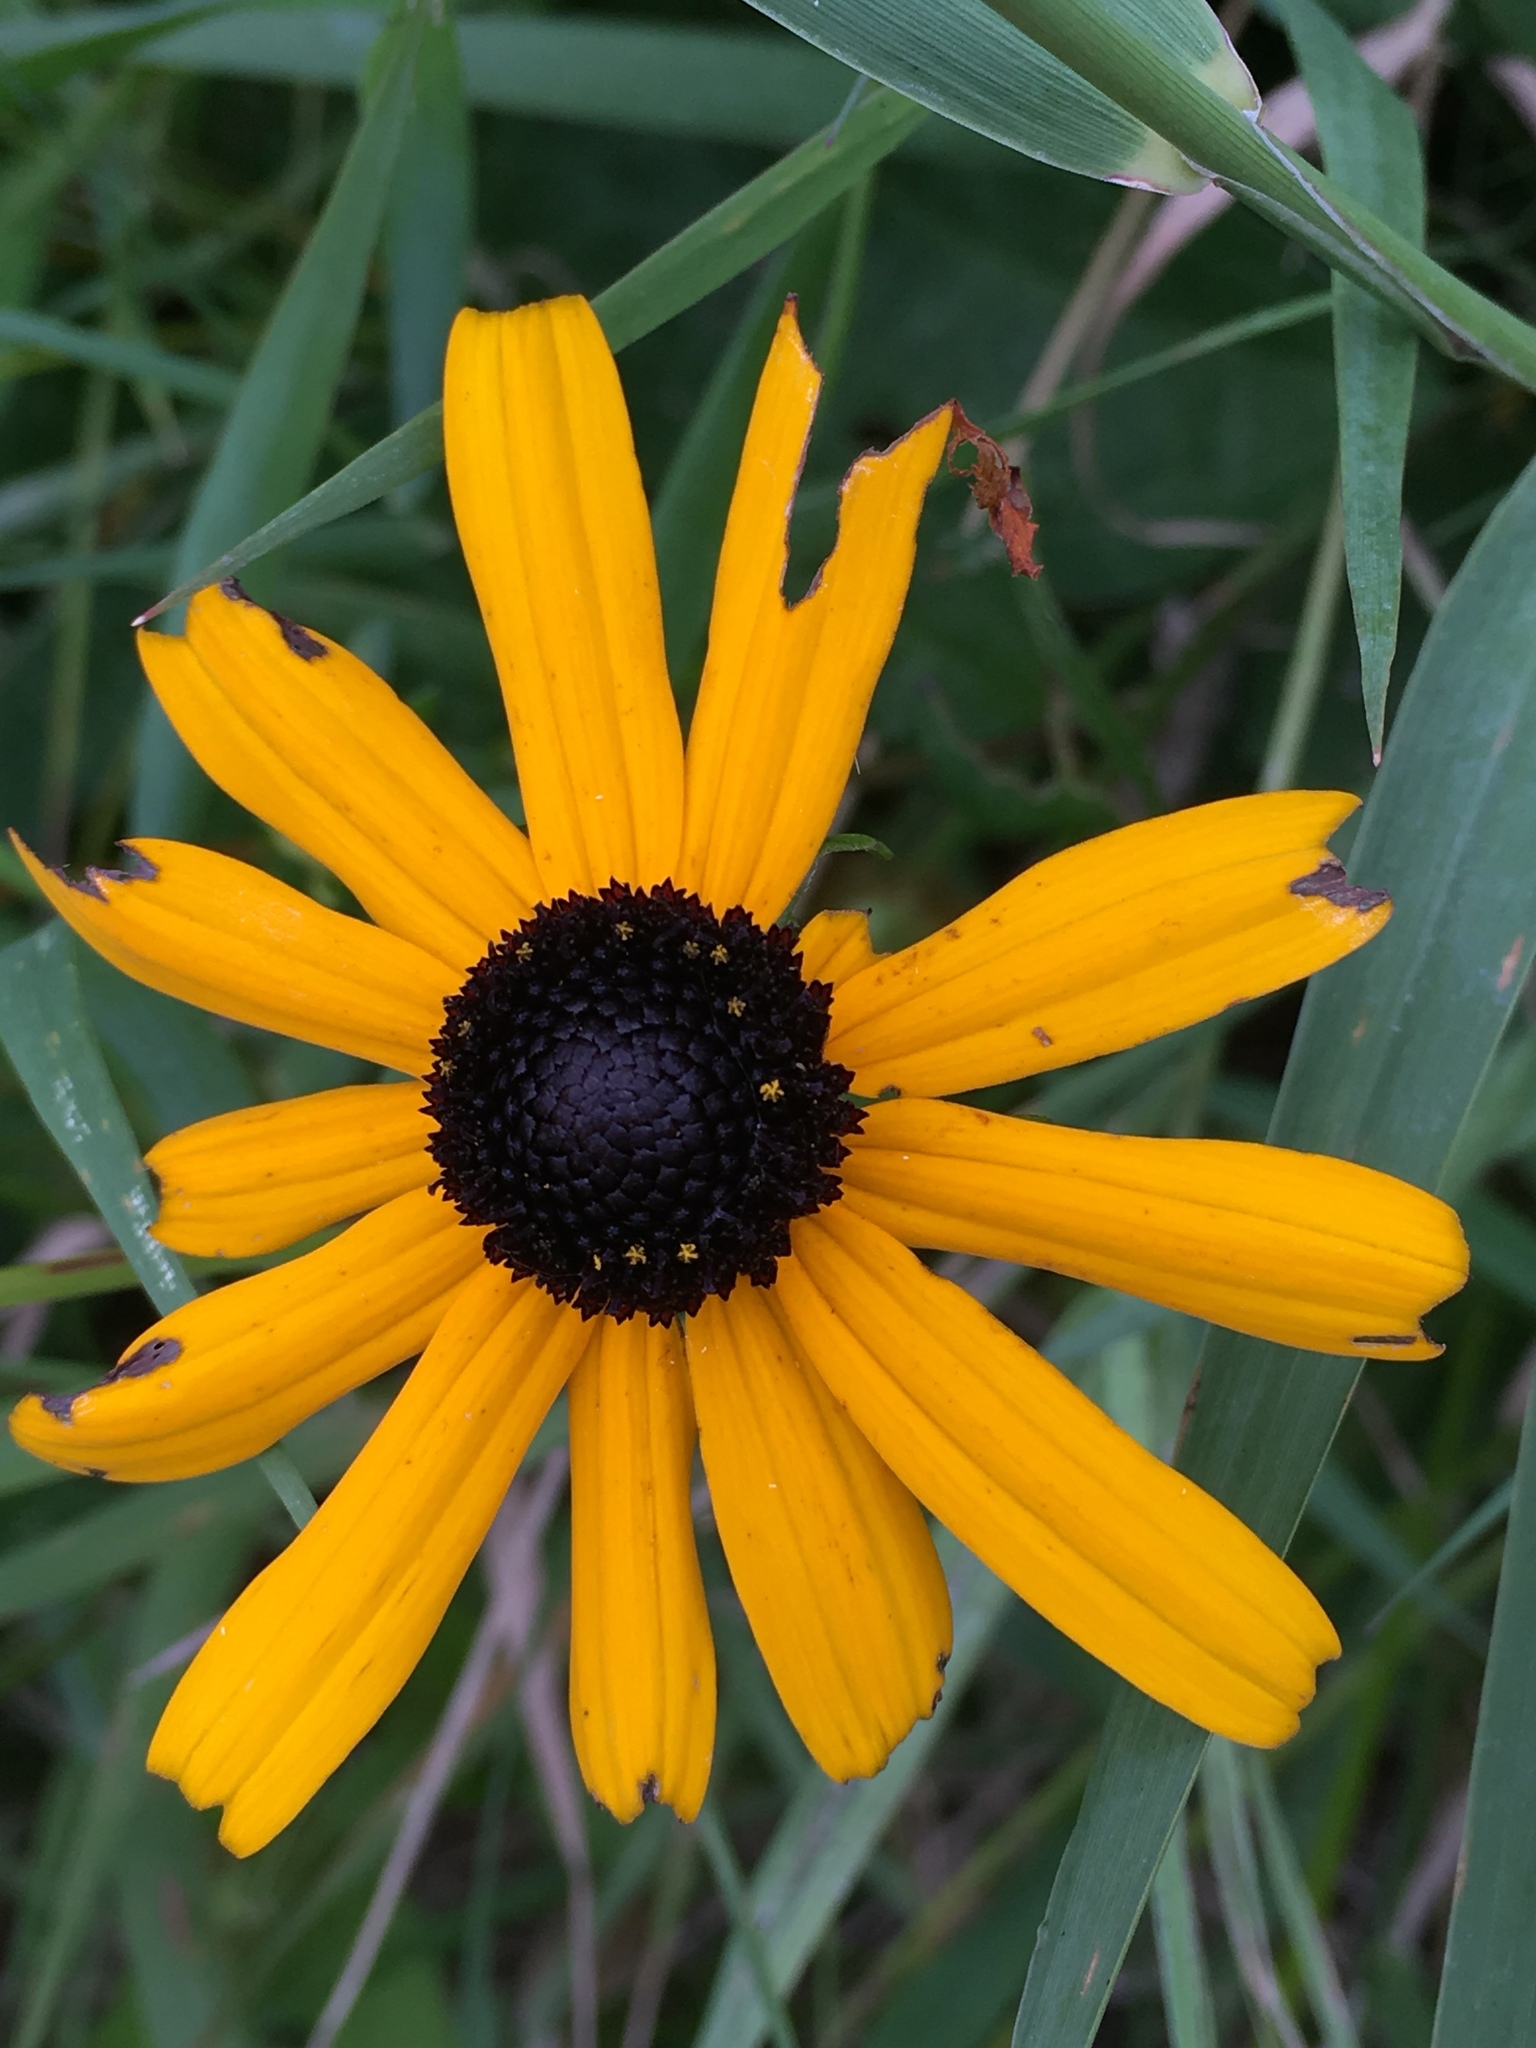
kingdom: Plantae
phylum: Tracheophyta
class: Magnoliopsida
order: Asterales
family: Asteraceae
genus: Rudbeckia
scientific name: Rudbeckia hirta
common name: Black-eyed-susan
